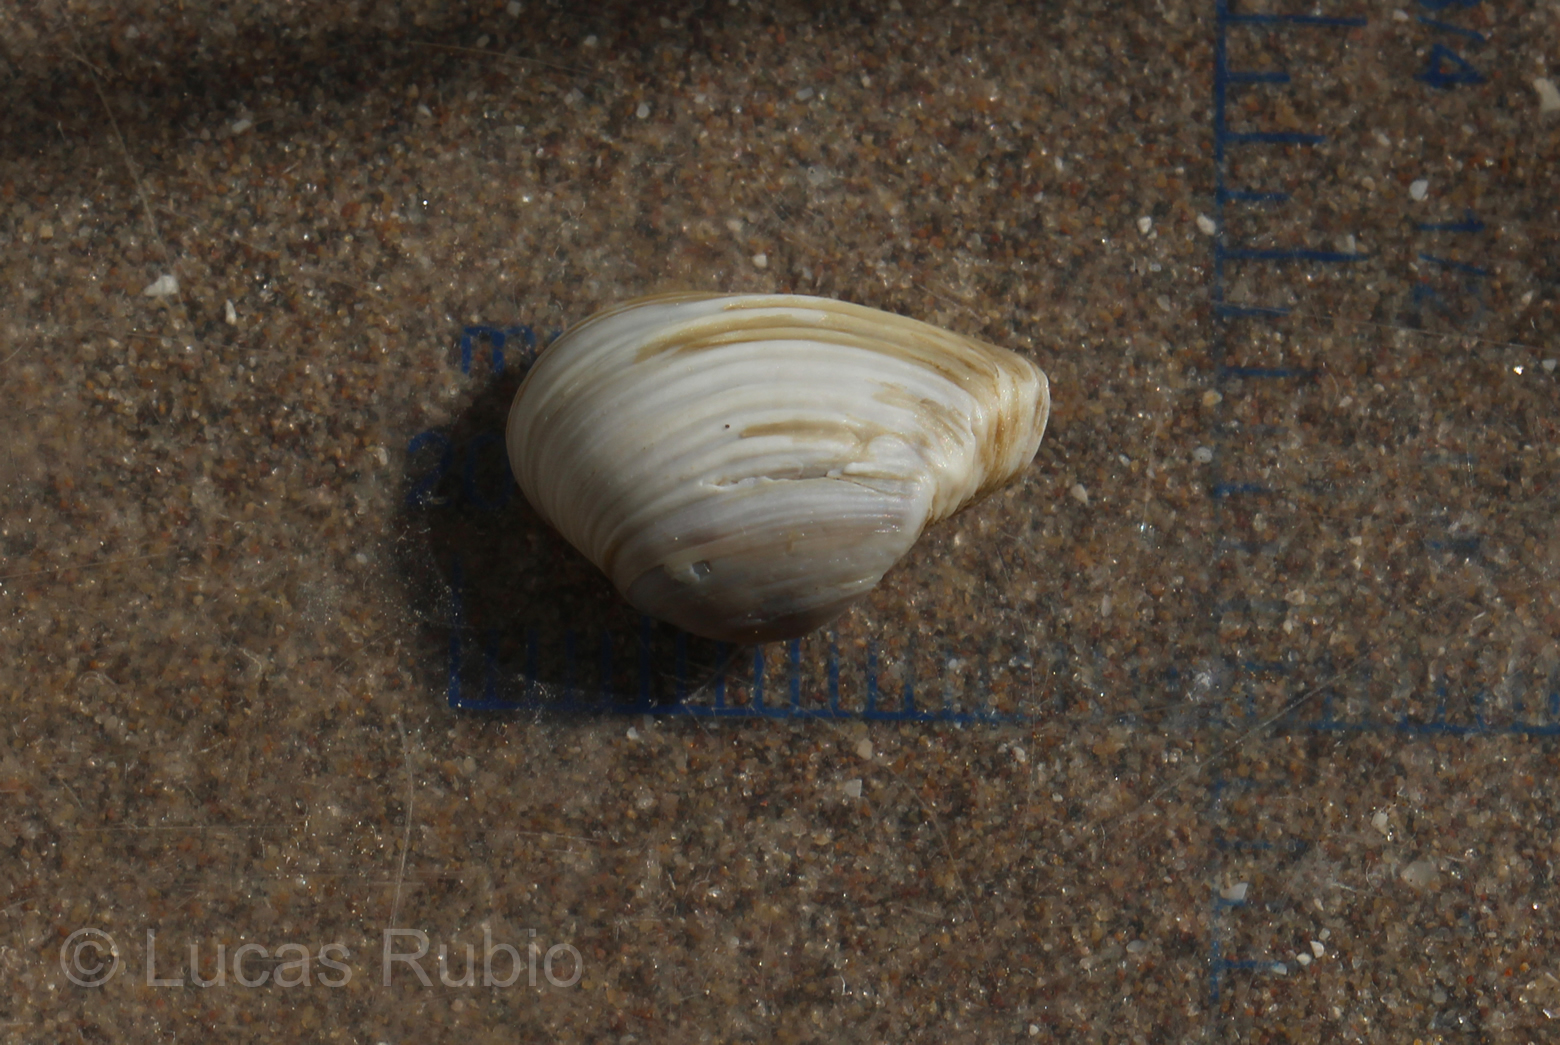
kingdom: Animalia
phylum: Mollusca
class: Bivalvia
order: Myida
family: Corbulidae
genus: Corbula
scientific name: Corbula patagonica
